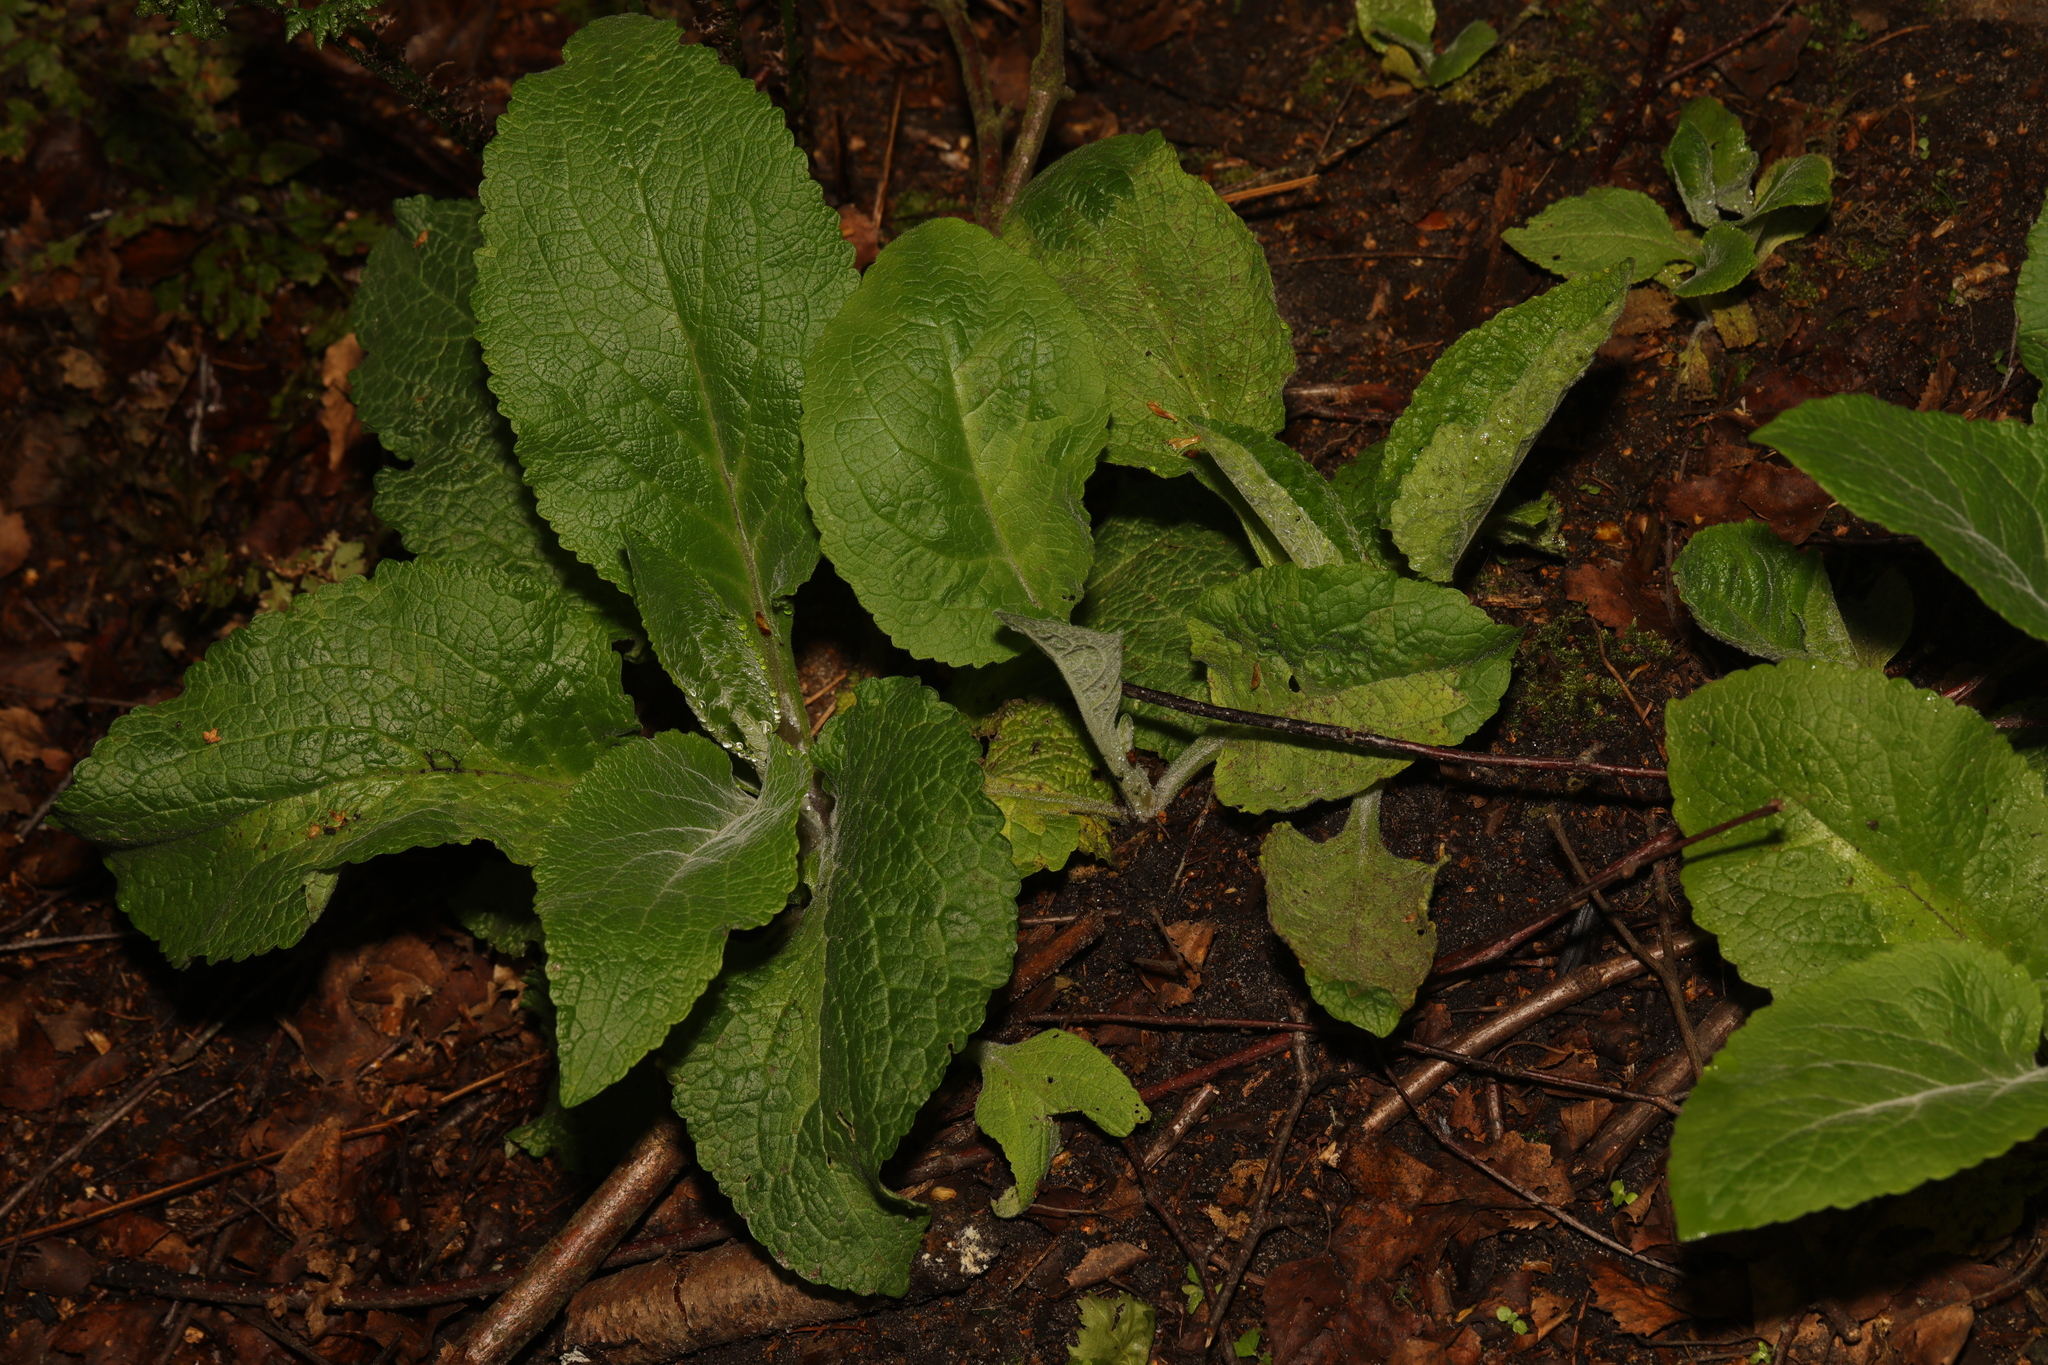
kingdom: Plantae
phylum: Tracheophyta
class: Magnoliopsida
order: Lamiales
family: Plantaginaceae
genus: Digitalis
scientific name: Digitalis purpurea
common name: Foxglove
